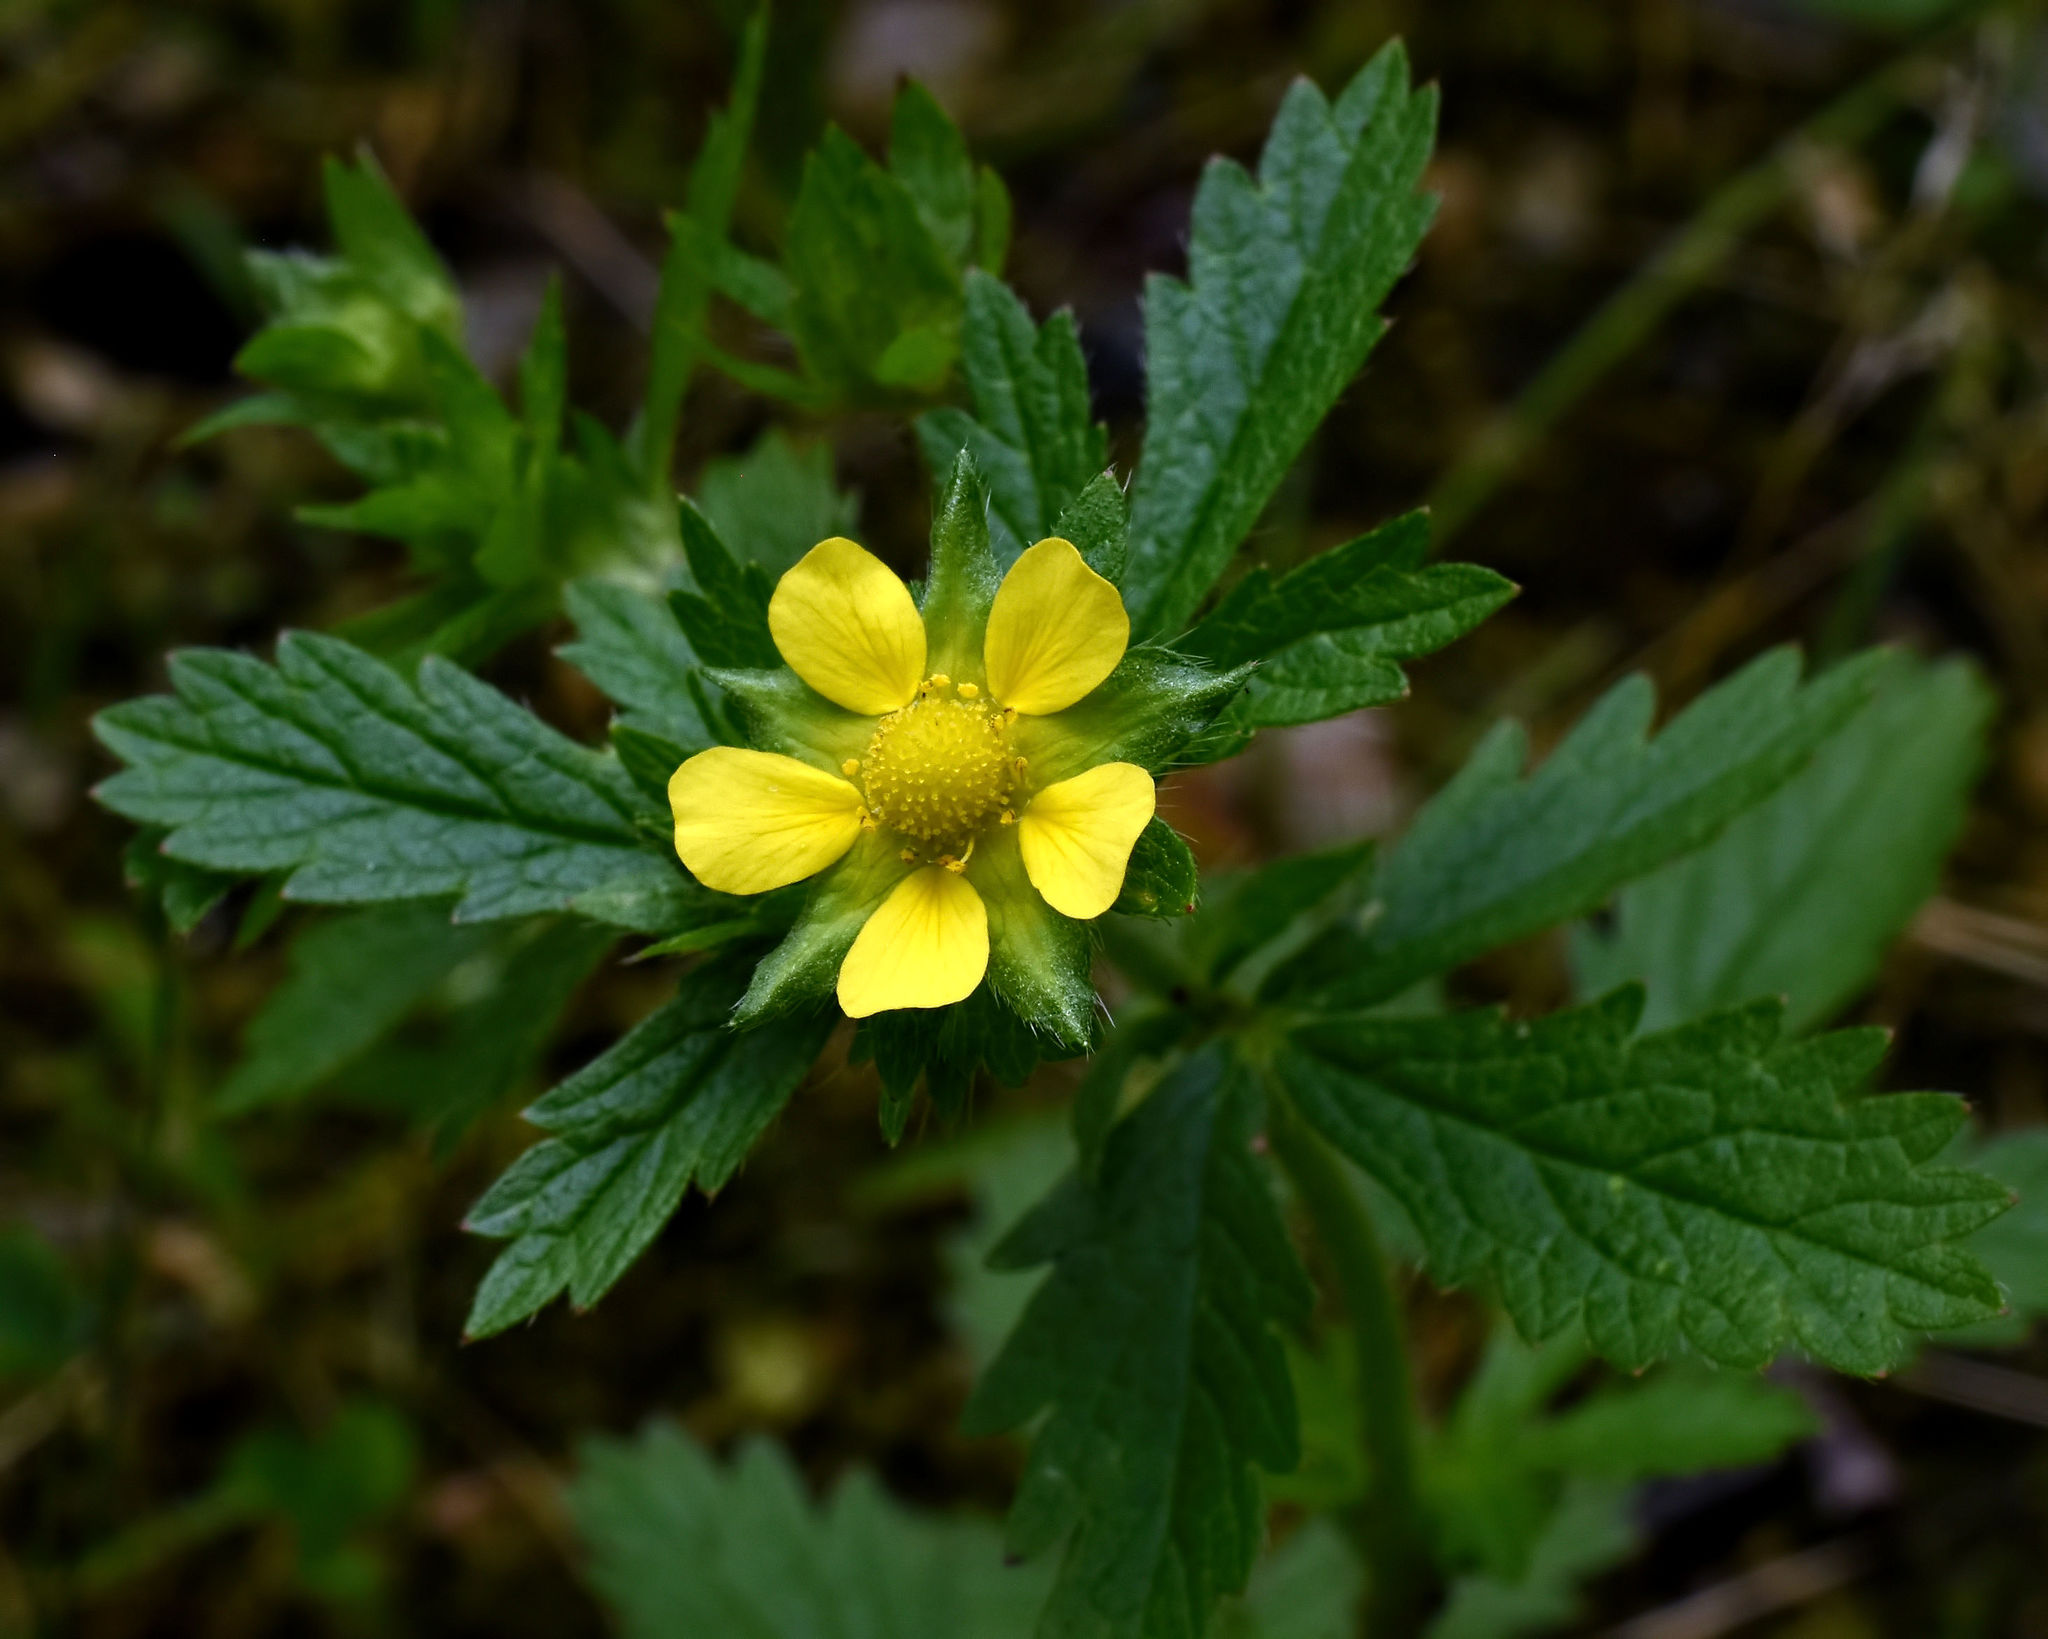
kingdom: Plantae
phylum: Tracheophyta
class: Magnoliopsida
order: Rosales
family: Rosaceae
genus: Potentilla
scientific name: Potentilla norvegica
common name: Ternate-leaved cinquefoil
